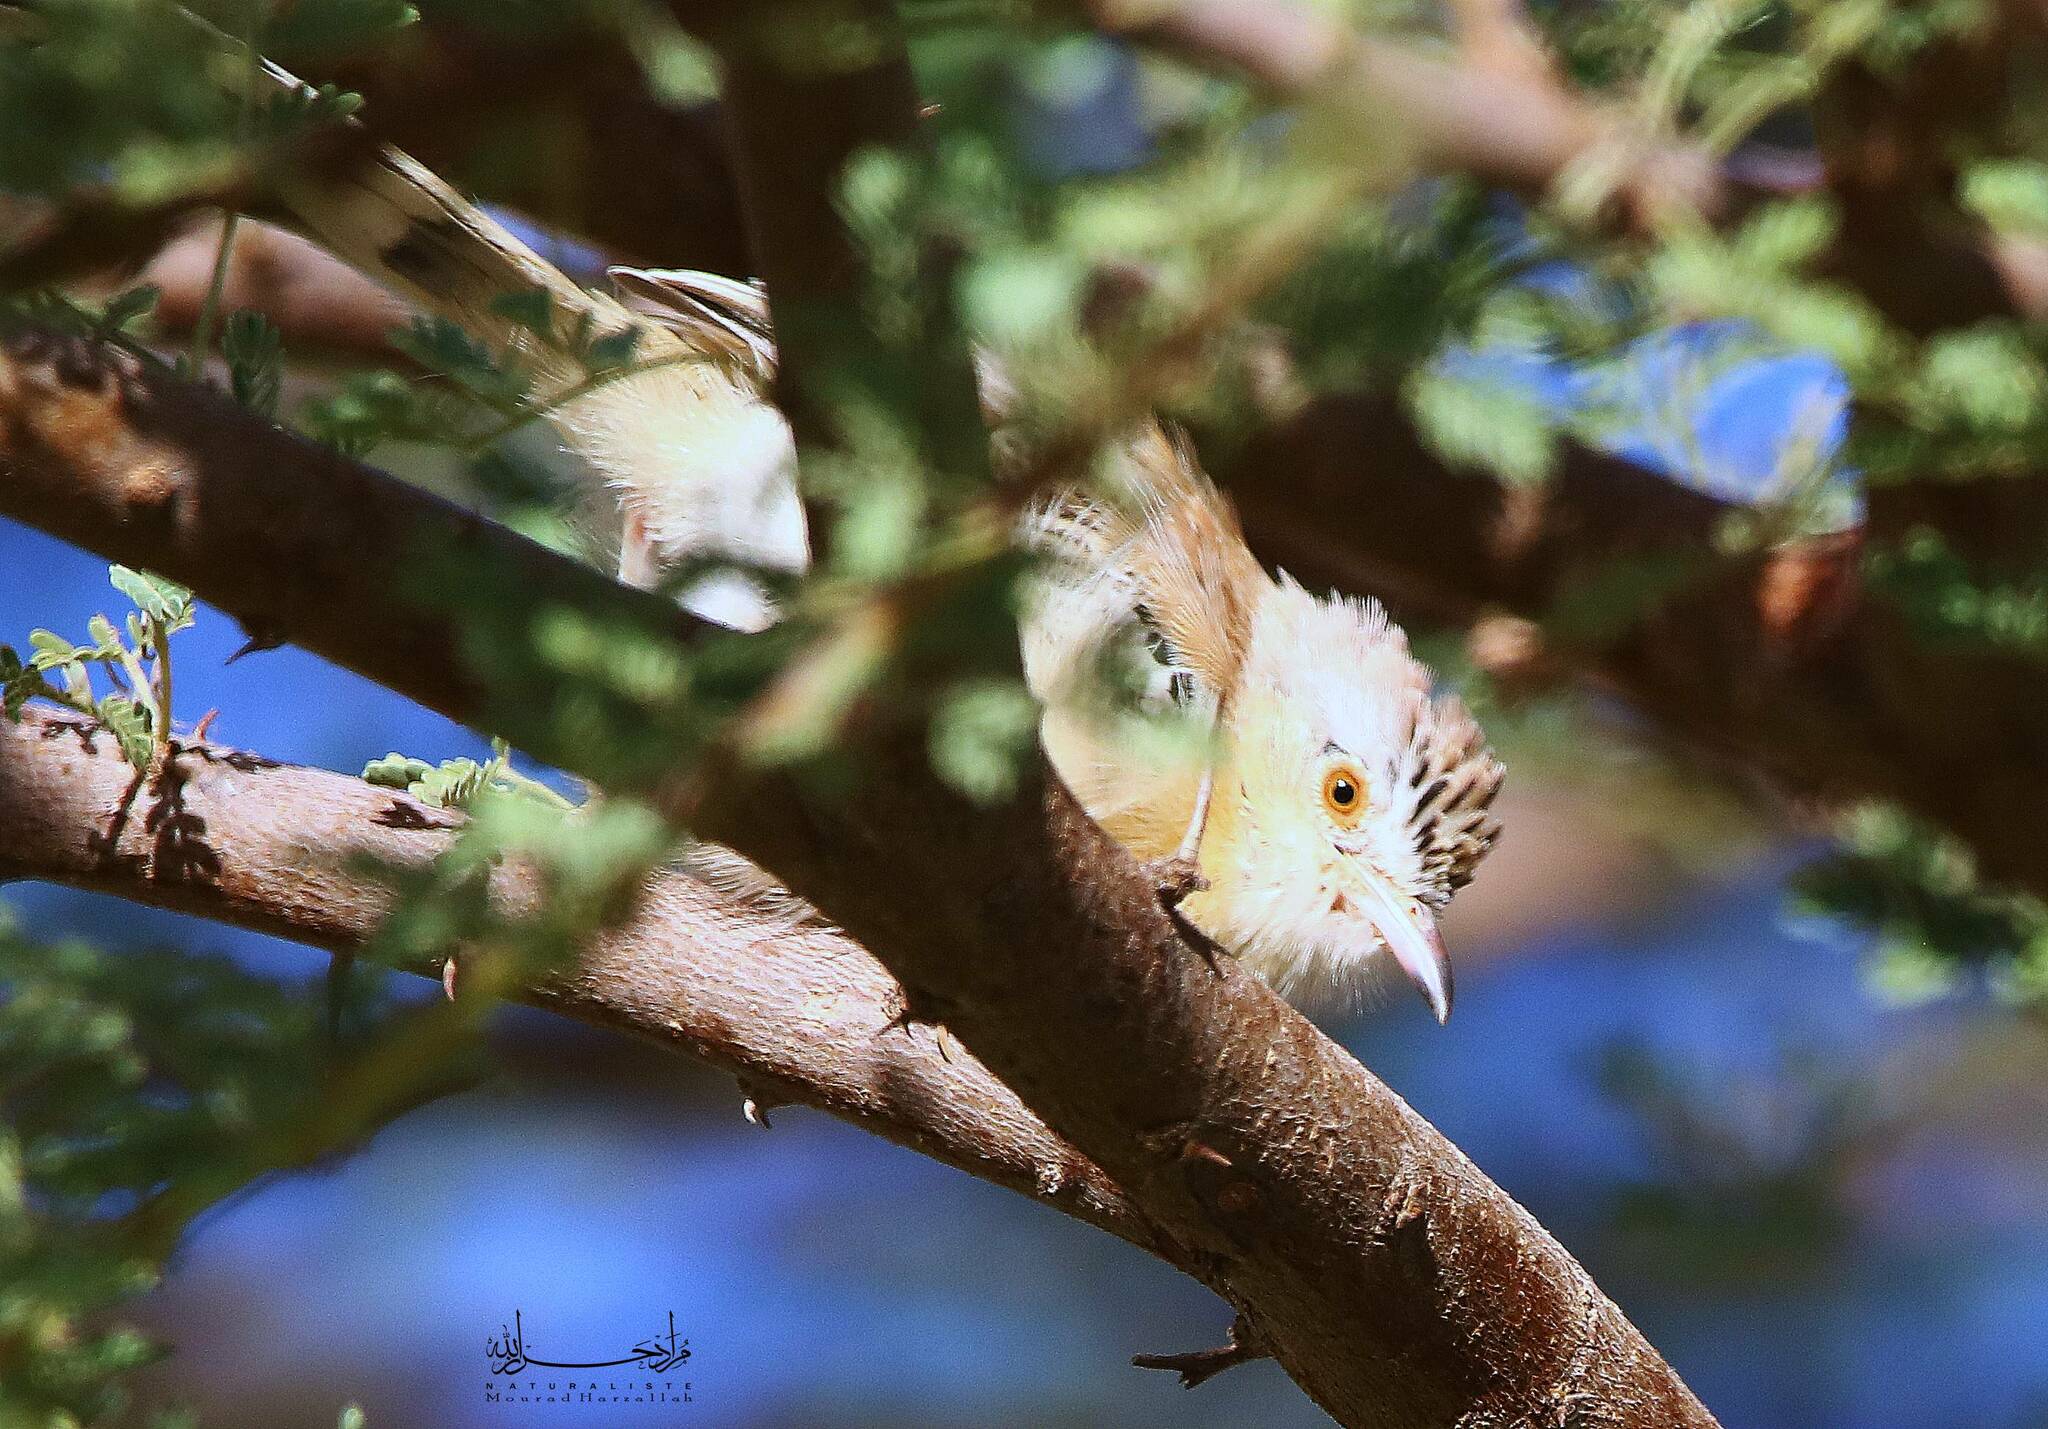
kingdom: Animalia
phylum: Chordata
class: Aves
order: Passeriformes
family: Cisticolidae
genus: Spiloptila
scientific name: Spiloptila clamans
